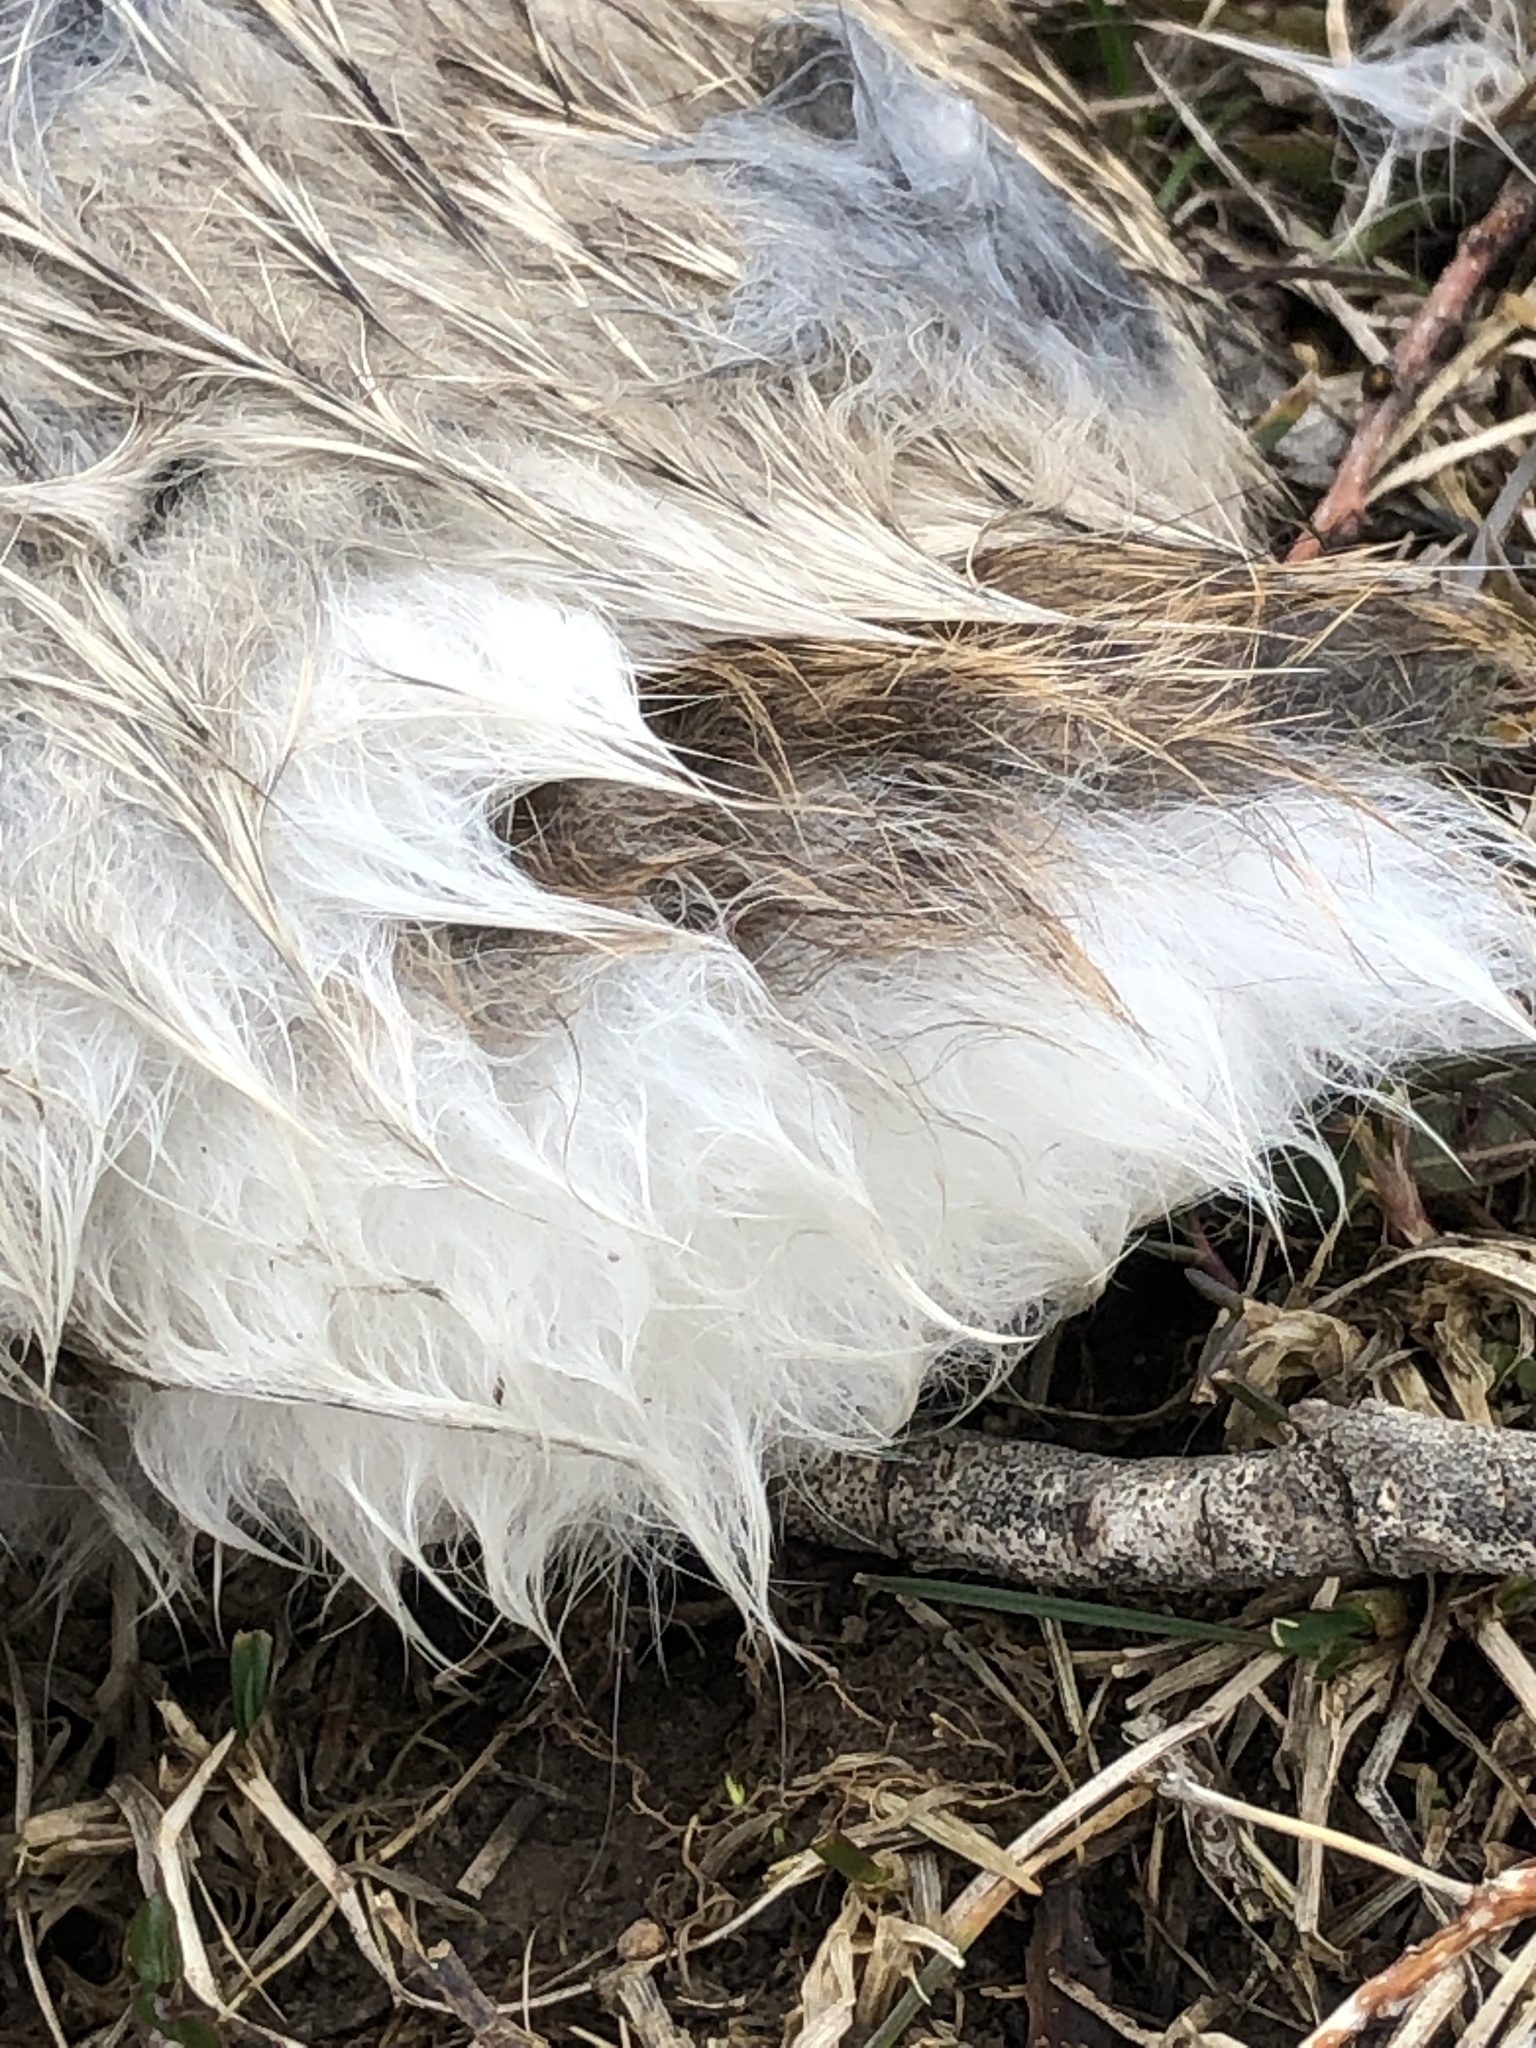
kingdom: Animalia
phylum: Chordata
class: Mammalia
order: Lagomorpha
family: Leporidae
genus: Sylvilagus
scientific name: Sylvilagus floridanus
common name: Eastern cottontail
